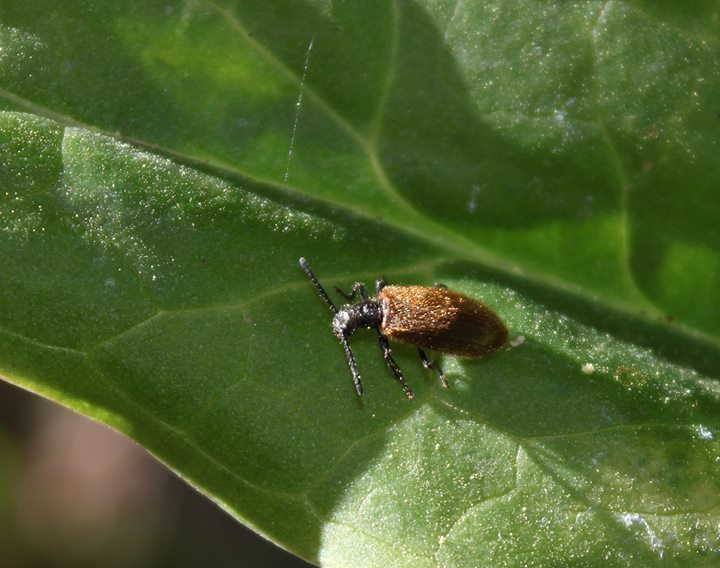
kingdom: Animalia
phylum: Arthropoda
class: Insecta
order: Coleoptera
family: Tenebrionidae
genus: Lagria
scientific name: Lagria hirta
